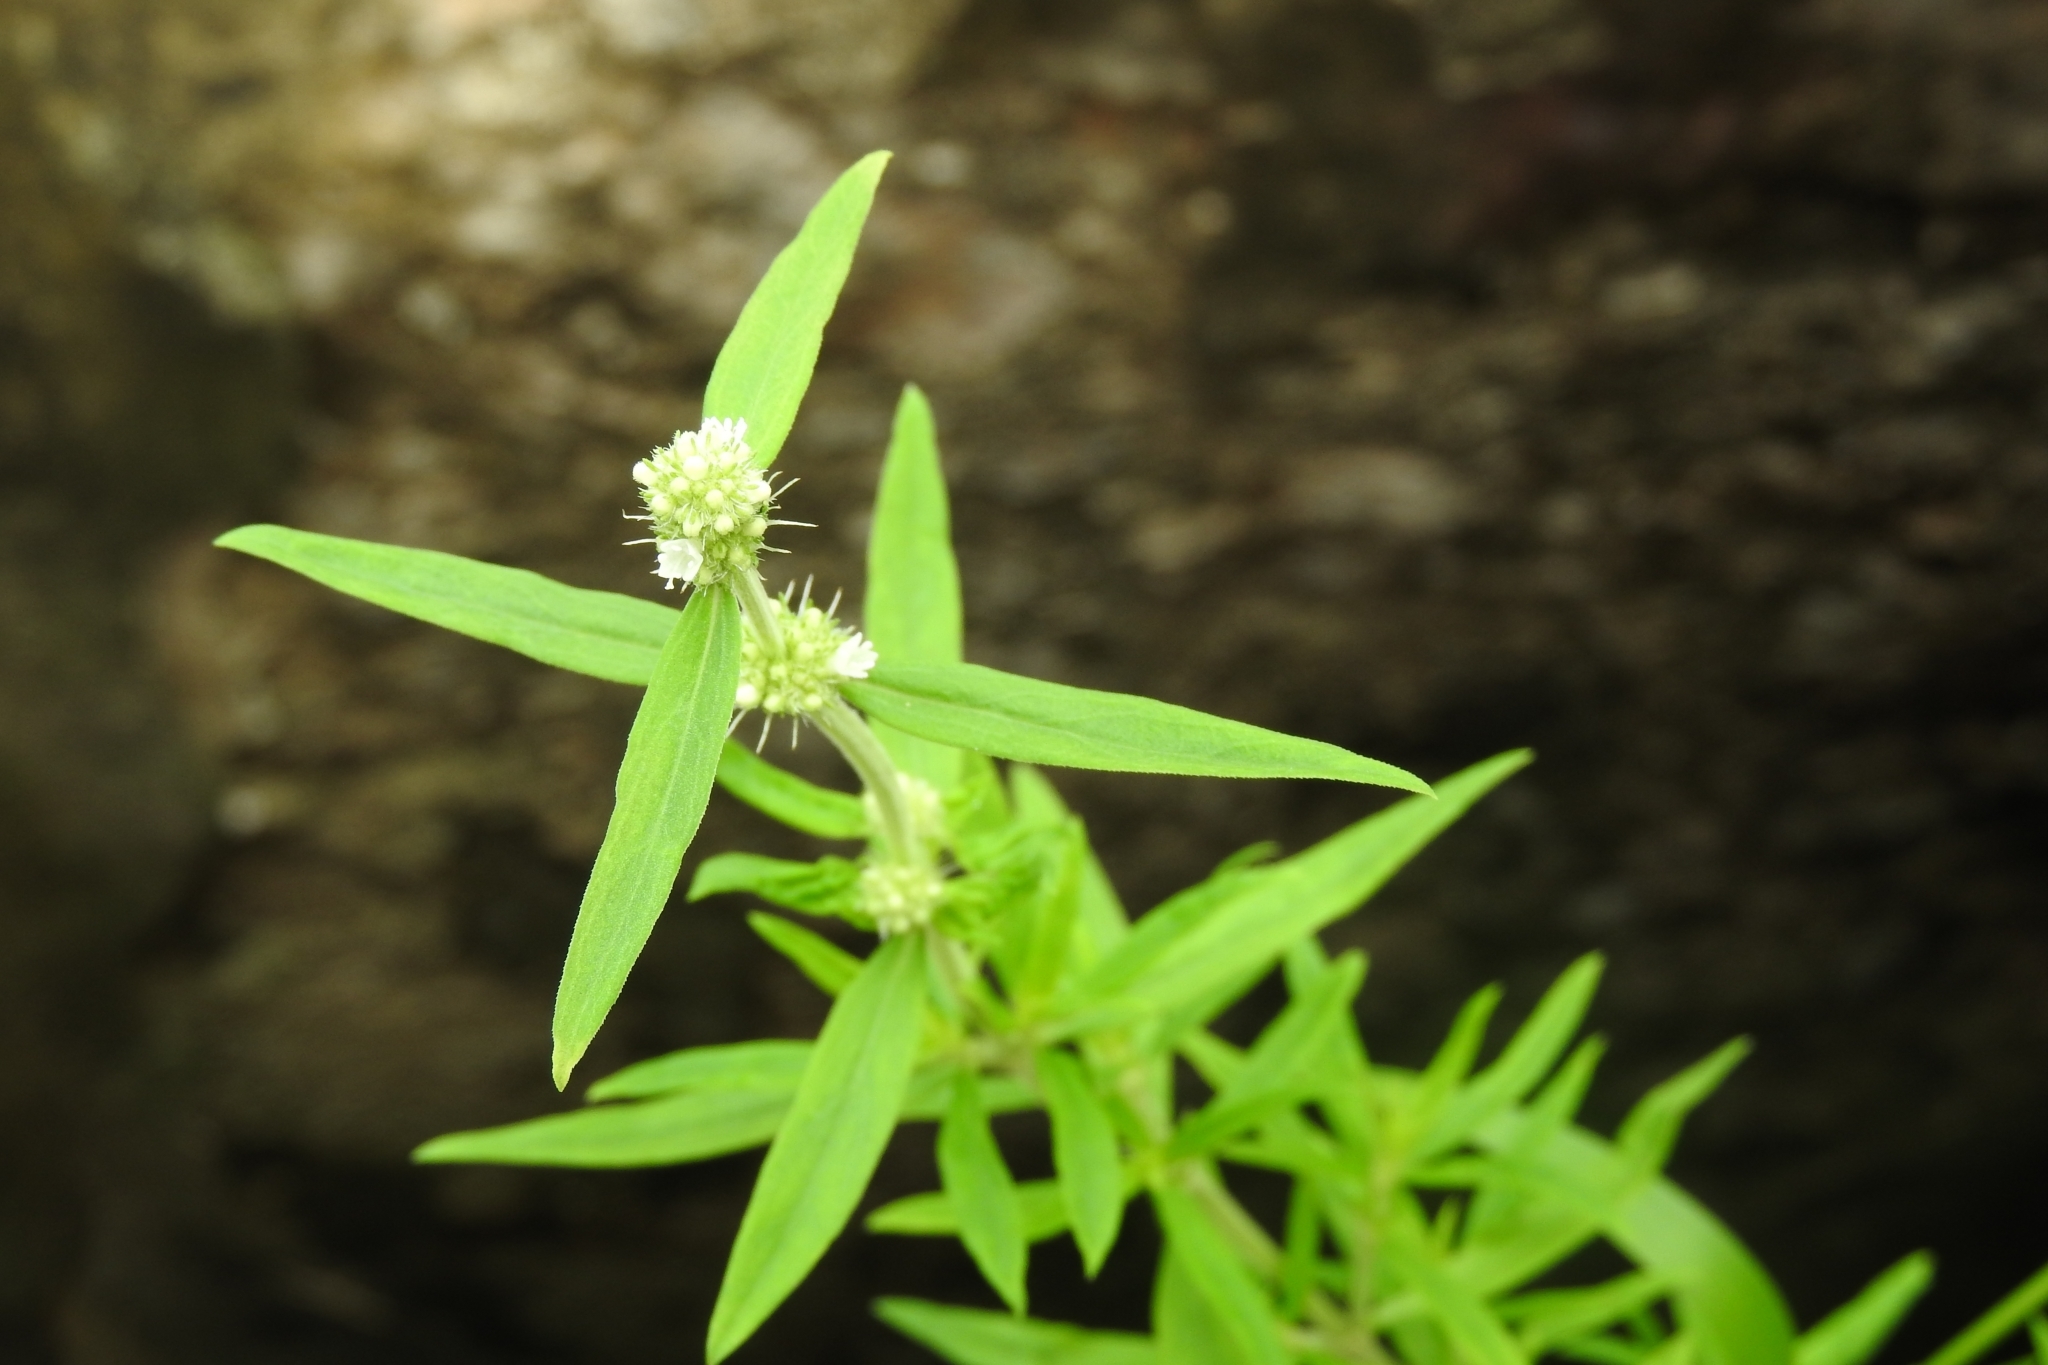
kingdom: Plantae
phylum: Tracheophyta
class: Magnoliopsida
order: Gentianales
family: Rubiaceae
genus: Spermacoce
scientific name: Spermacoce verticillata
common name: Shrubby false buttonweed
